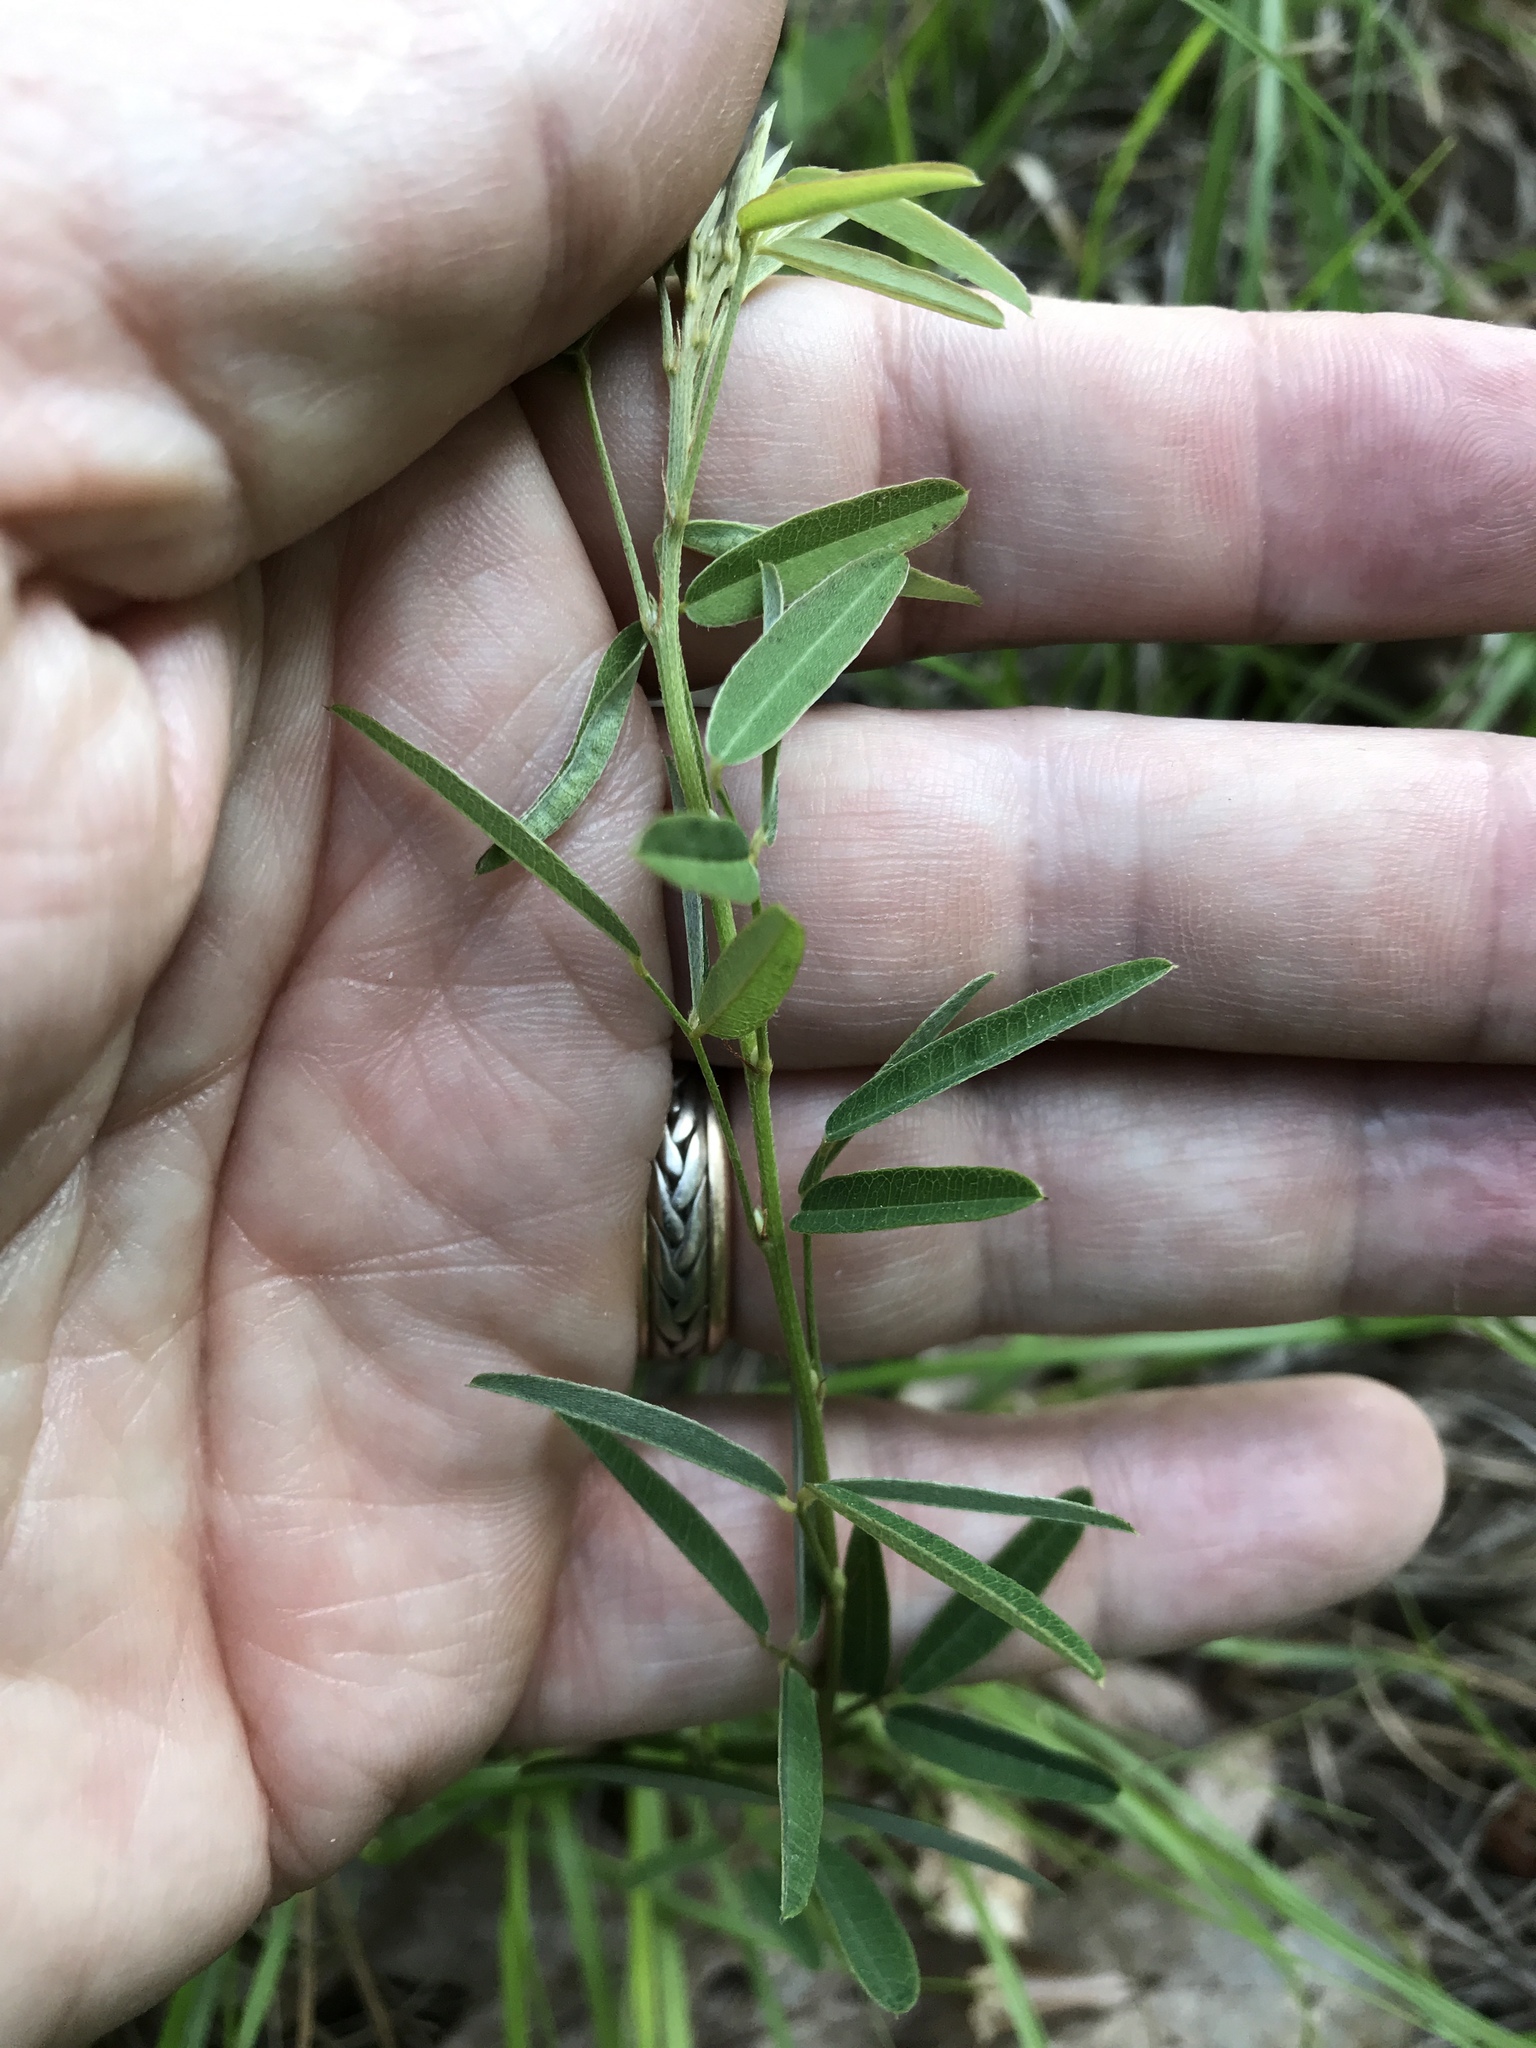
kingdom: Plantae
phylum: Tracheophyta
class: Magnoliopsida
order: Fabales
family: Fabaceae
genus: Lespedeza
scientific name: Lespedeza virginica
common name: Slender bush-clover
